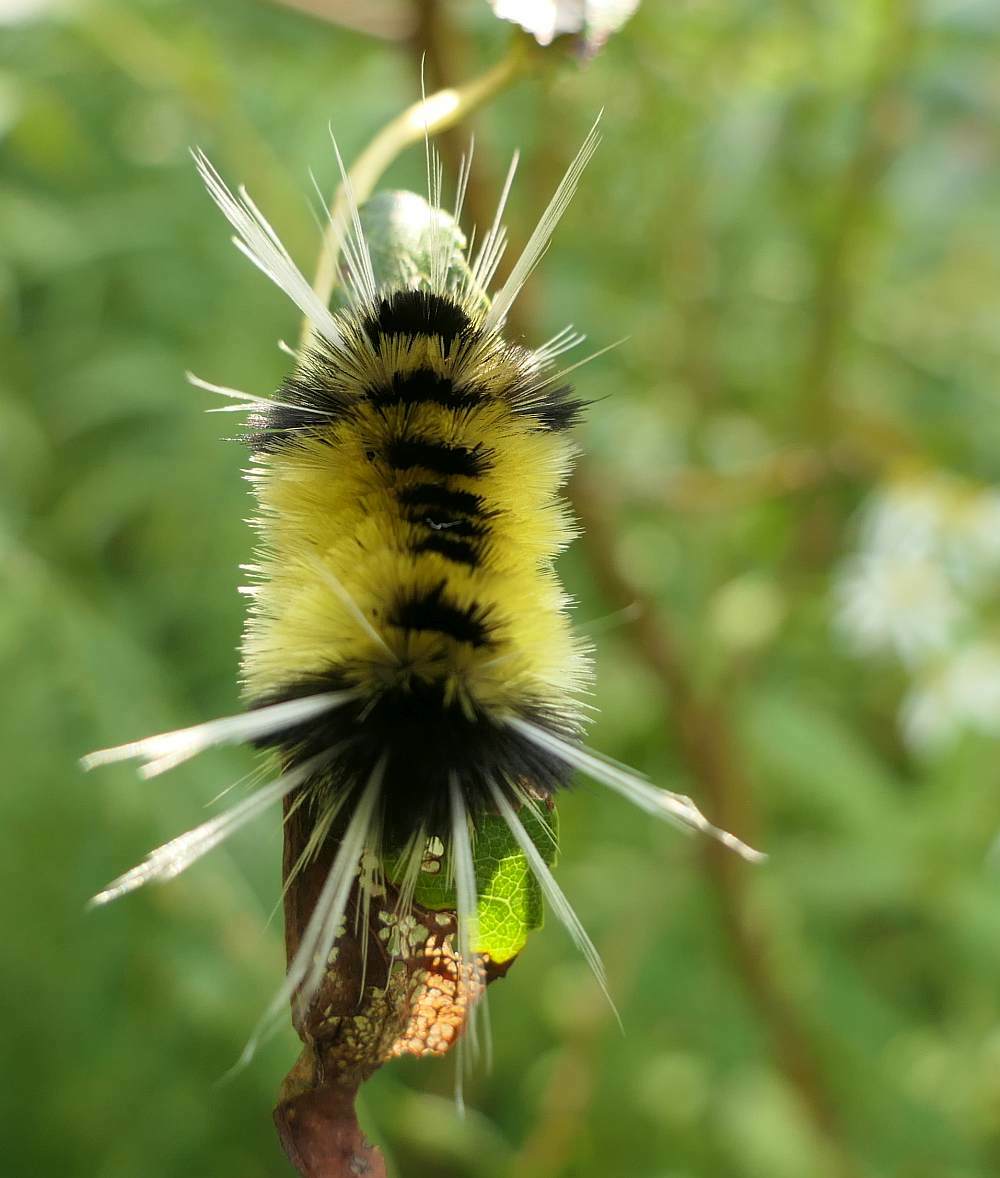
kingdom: Animalia
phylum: Arthropoda
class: Insecta
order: Lepidoptera
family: Erebidae
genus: Lophocampa
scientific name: Lophocampa maculata
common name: Spotted tussock moth
